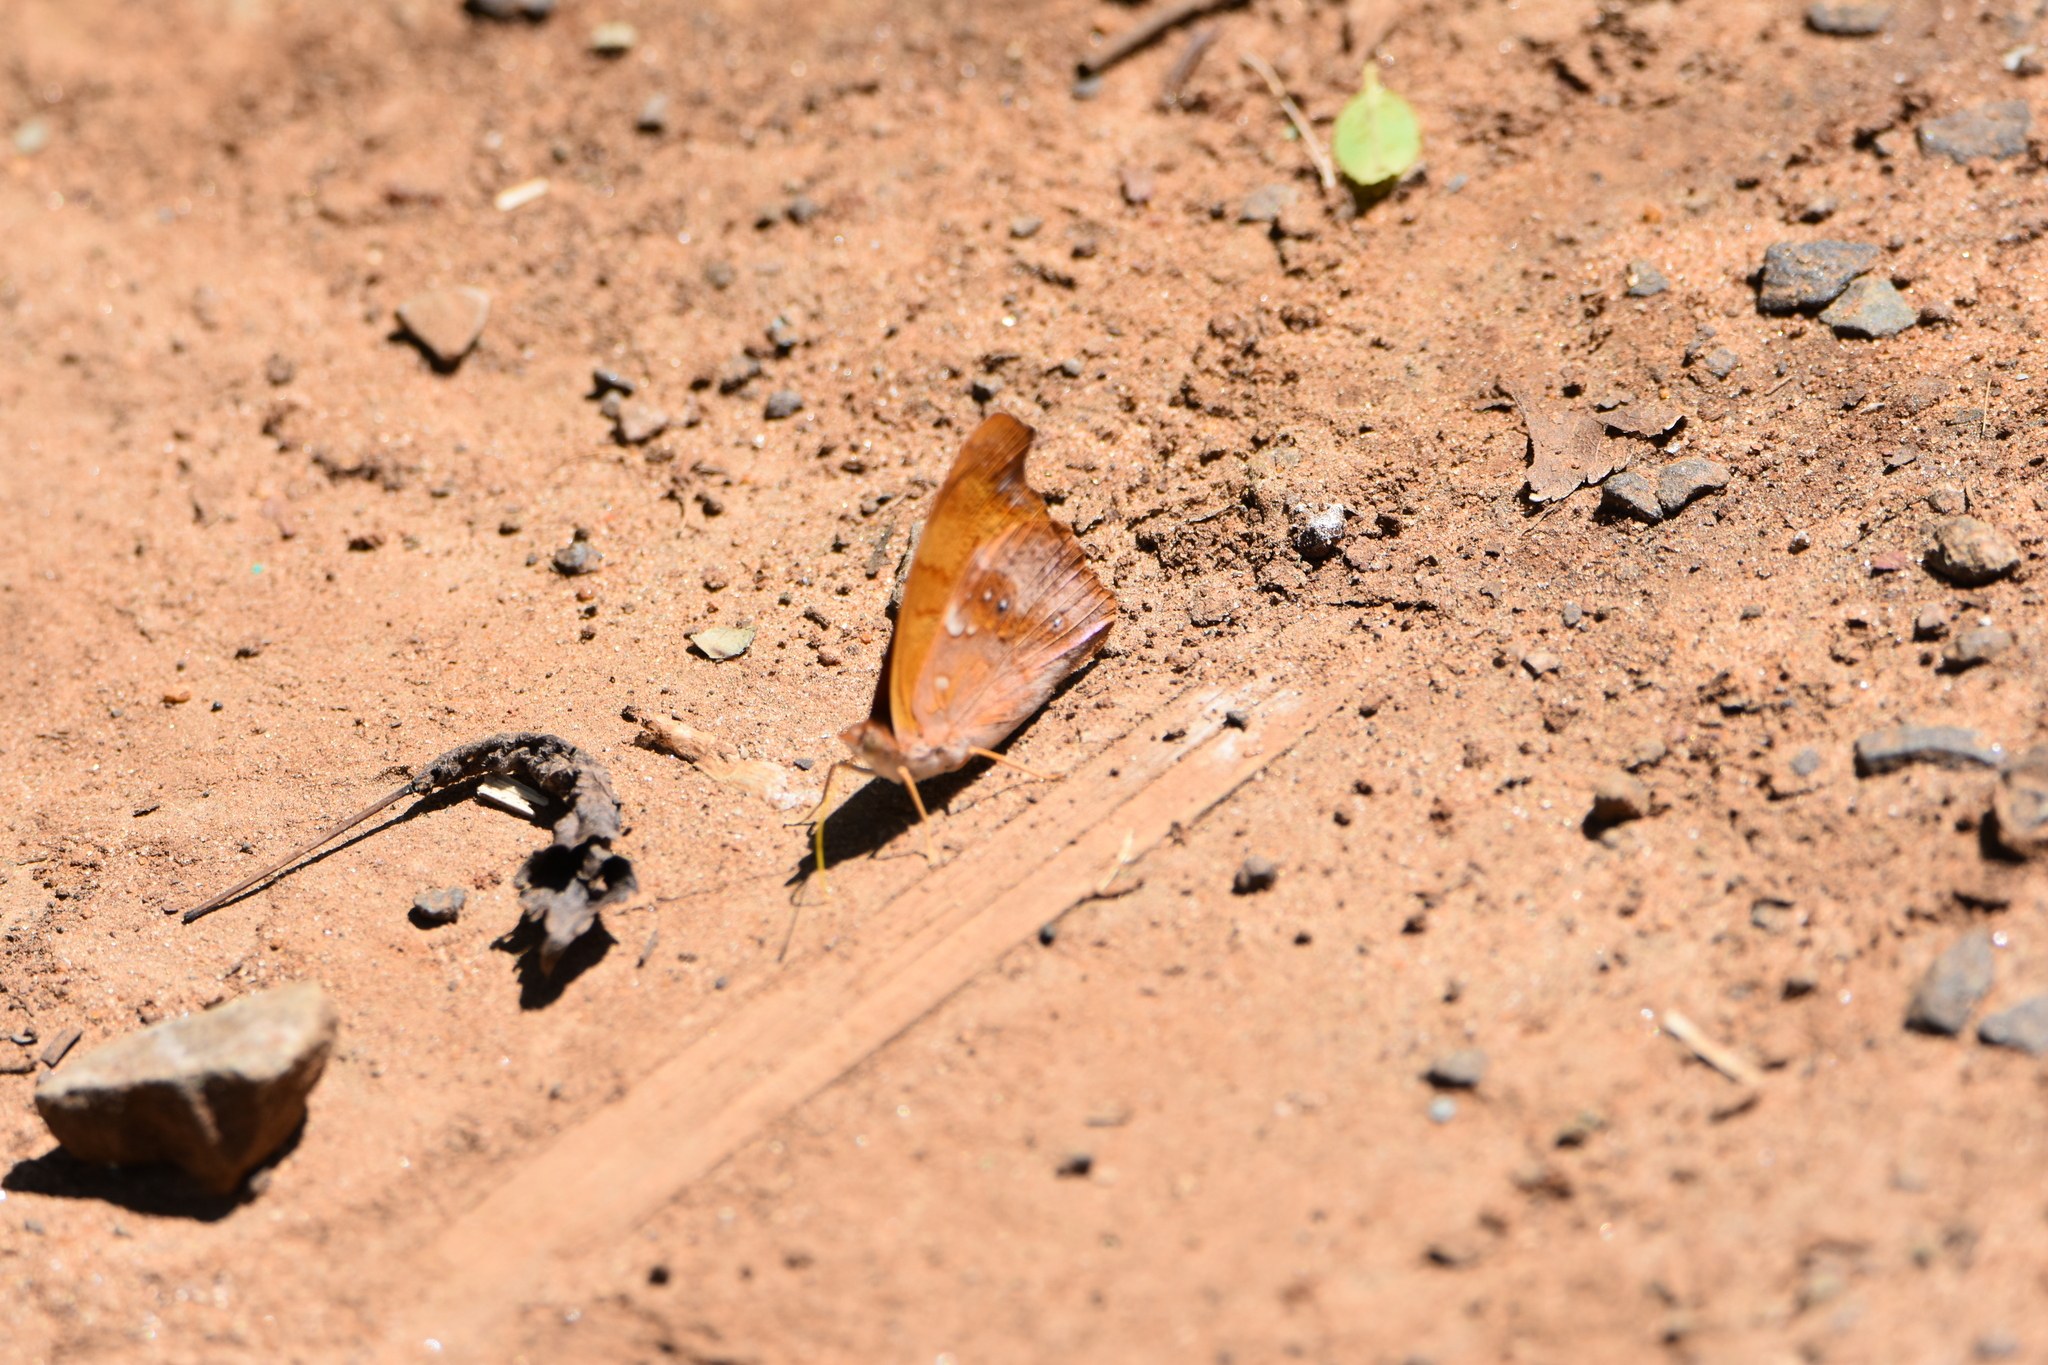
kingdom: Animalia
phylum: Arthropoda
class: Insecta
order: Lepidoptera
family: Nymphalidae
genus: Temenis
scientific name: Temenis laothoe
